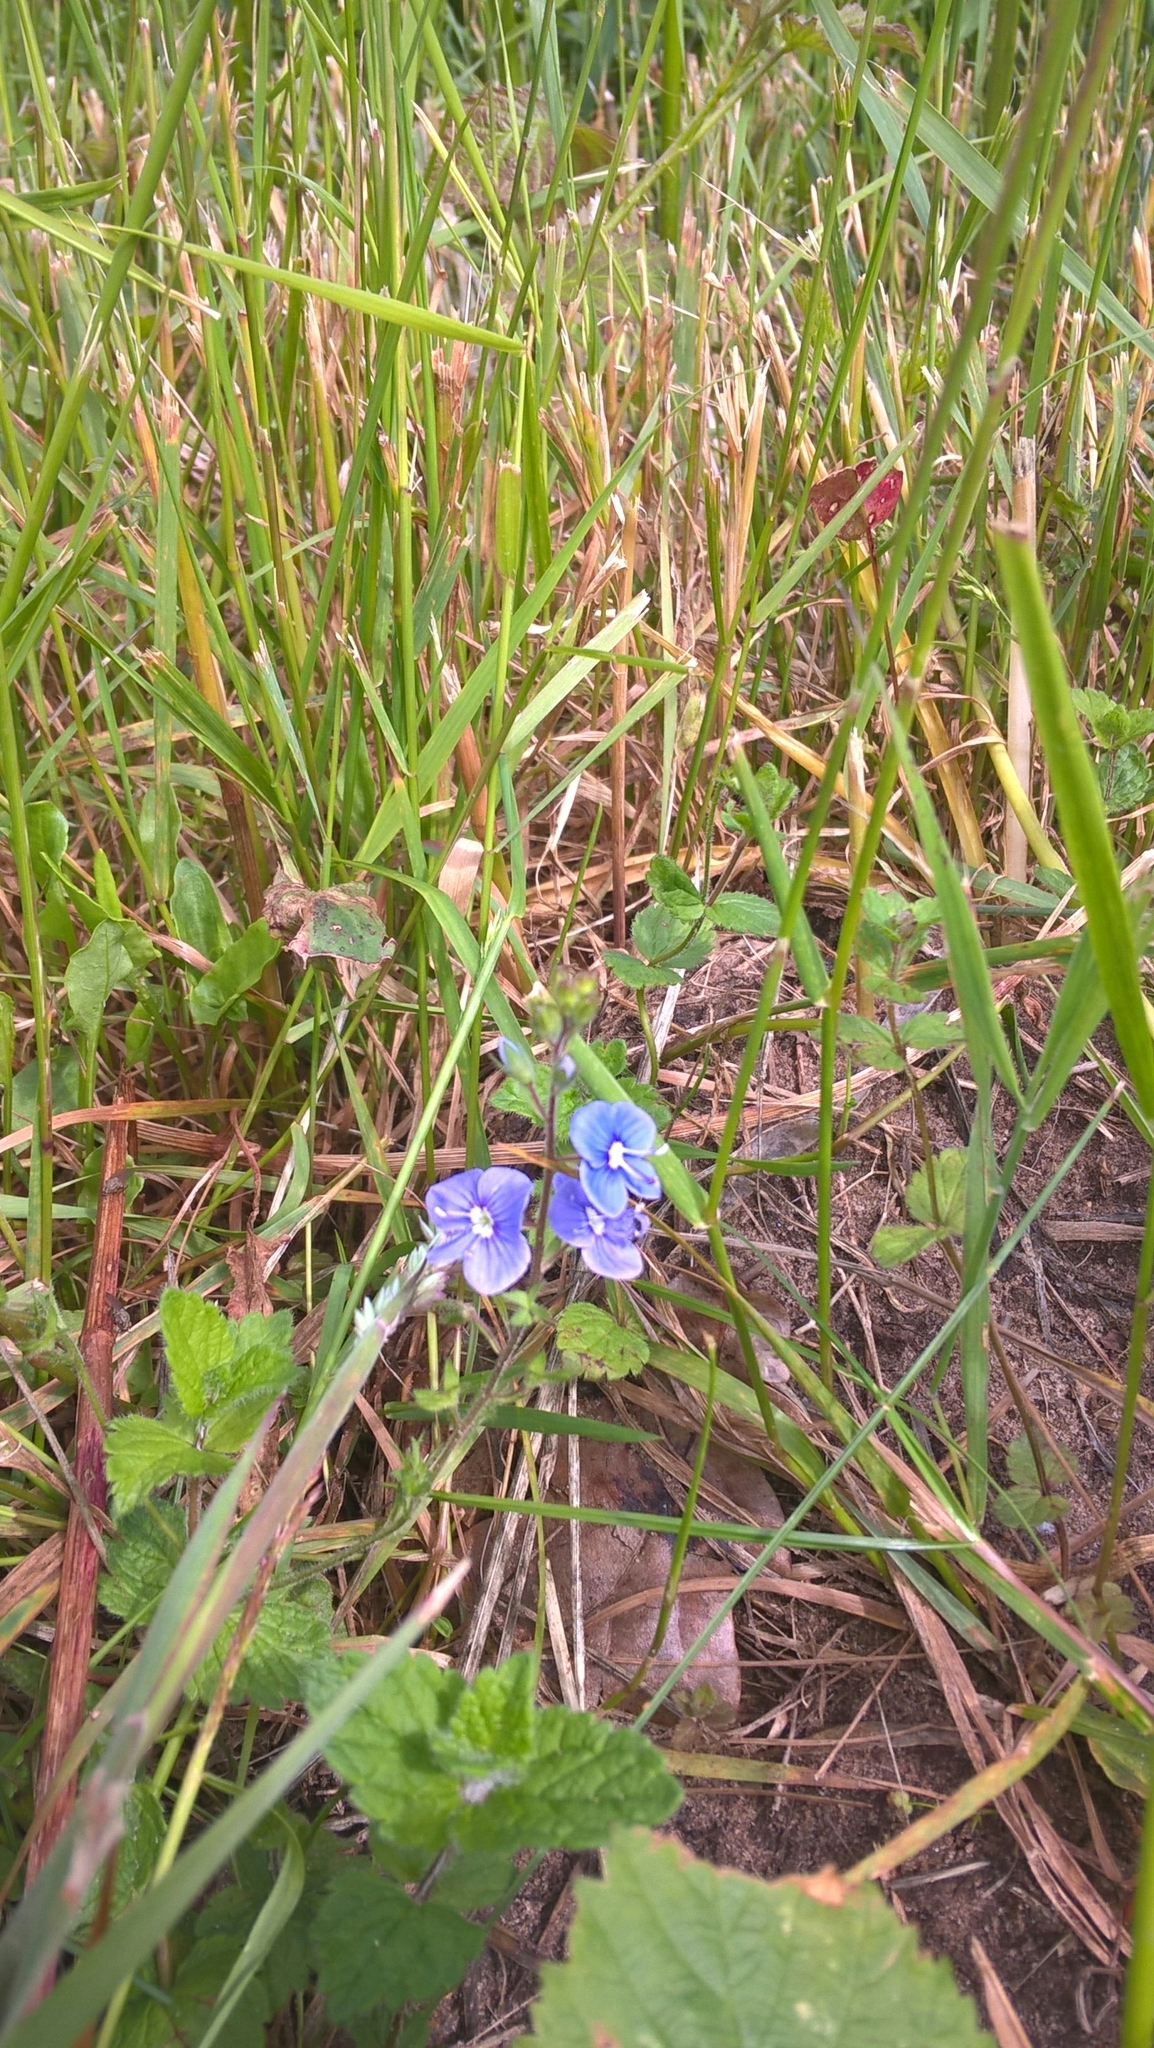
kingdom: Plantae
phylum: Tracheophyta
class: Magnoliopsida
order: Lamiales
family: Plantaginaceae
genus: Veronica
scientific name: Veronica chamaedrys
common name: Germander speedwell
